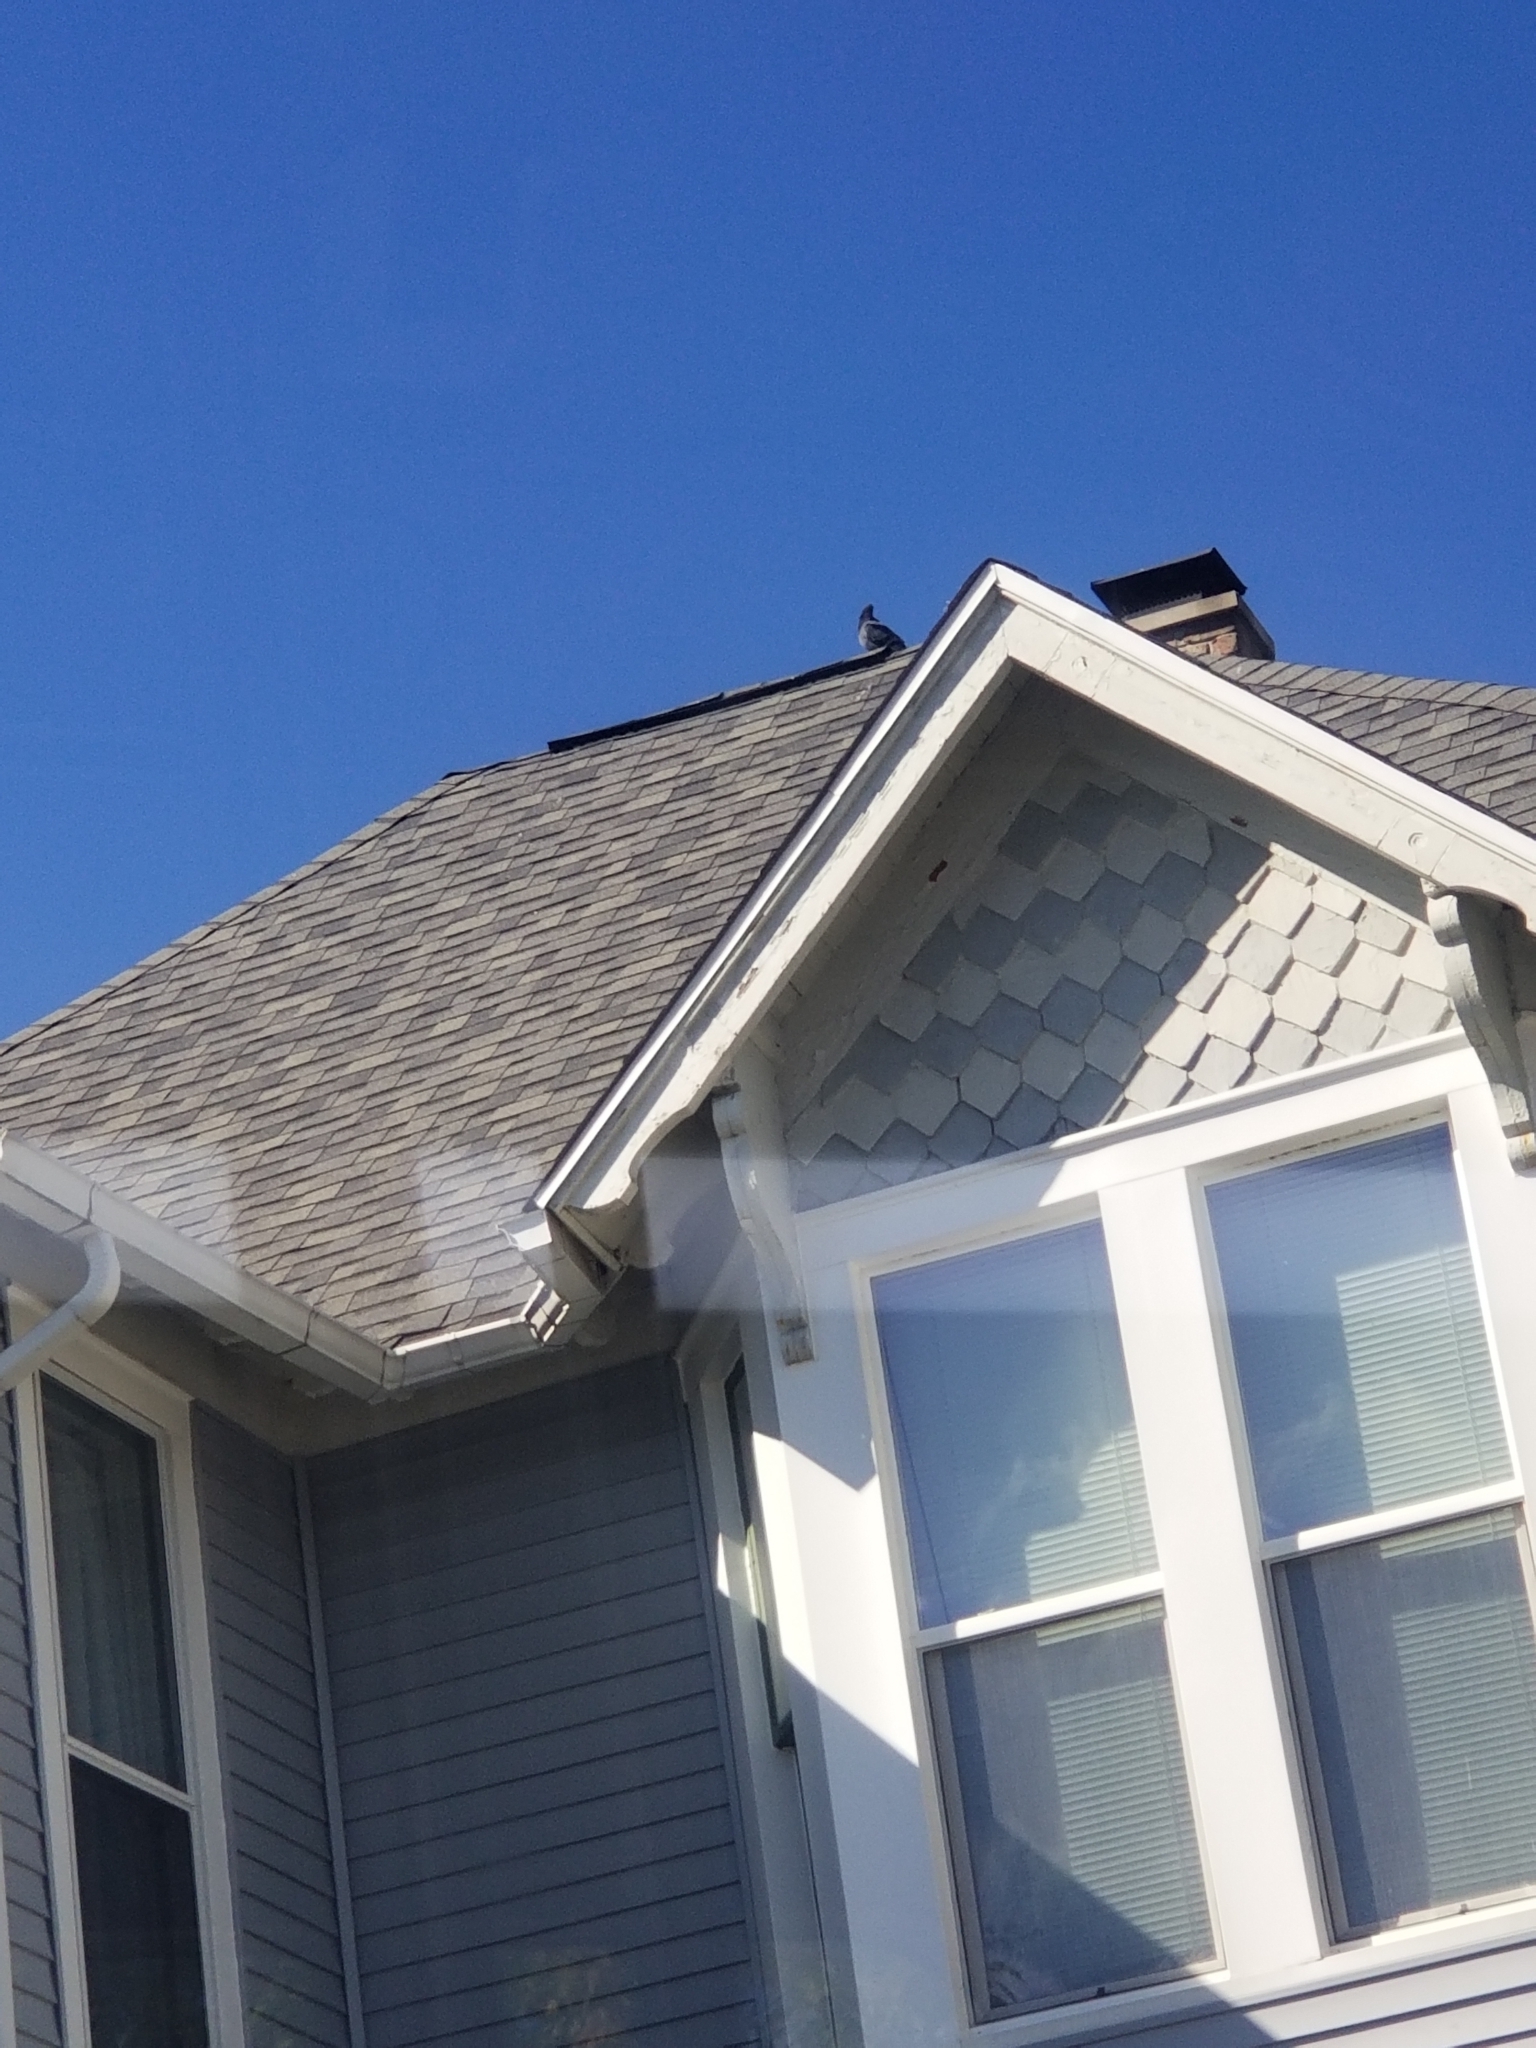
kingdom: Animalia
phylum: Chordata
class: Aves
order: Columbiformes
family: Columbidae
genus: Columba
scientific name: Columba livia
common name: Rock pigeon
